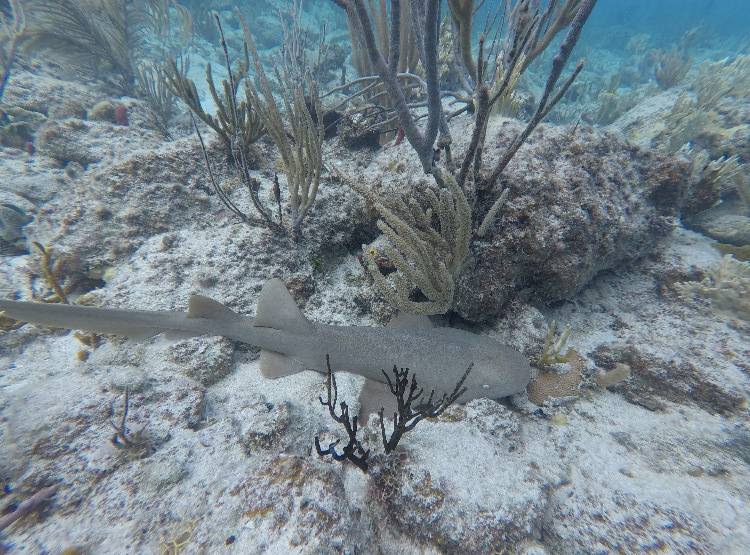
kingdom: Animalia
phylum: Chordata
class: Elasmobranchii
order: Orectolobiformes
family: Ginglymostomatidae
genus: Ginglymostoma
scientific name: Ginglymostoma cirratum
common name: Nurse shark
